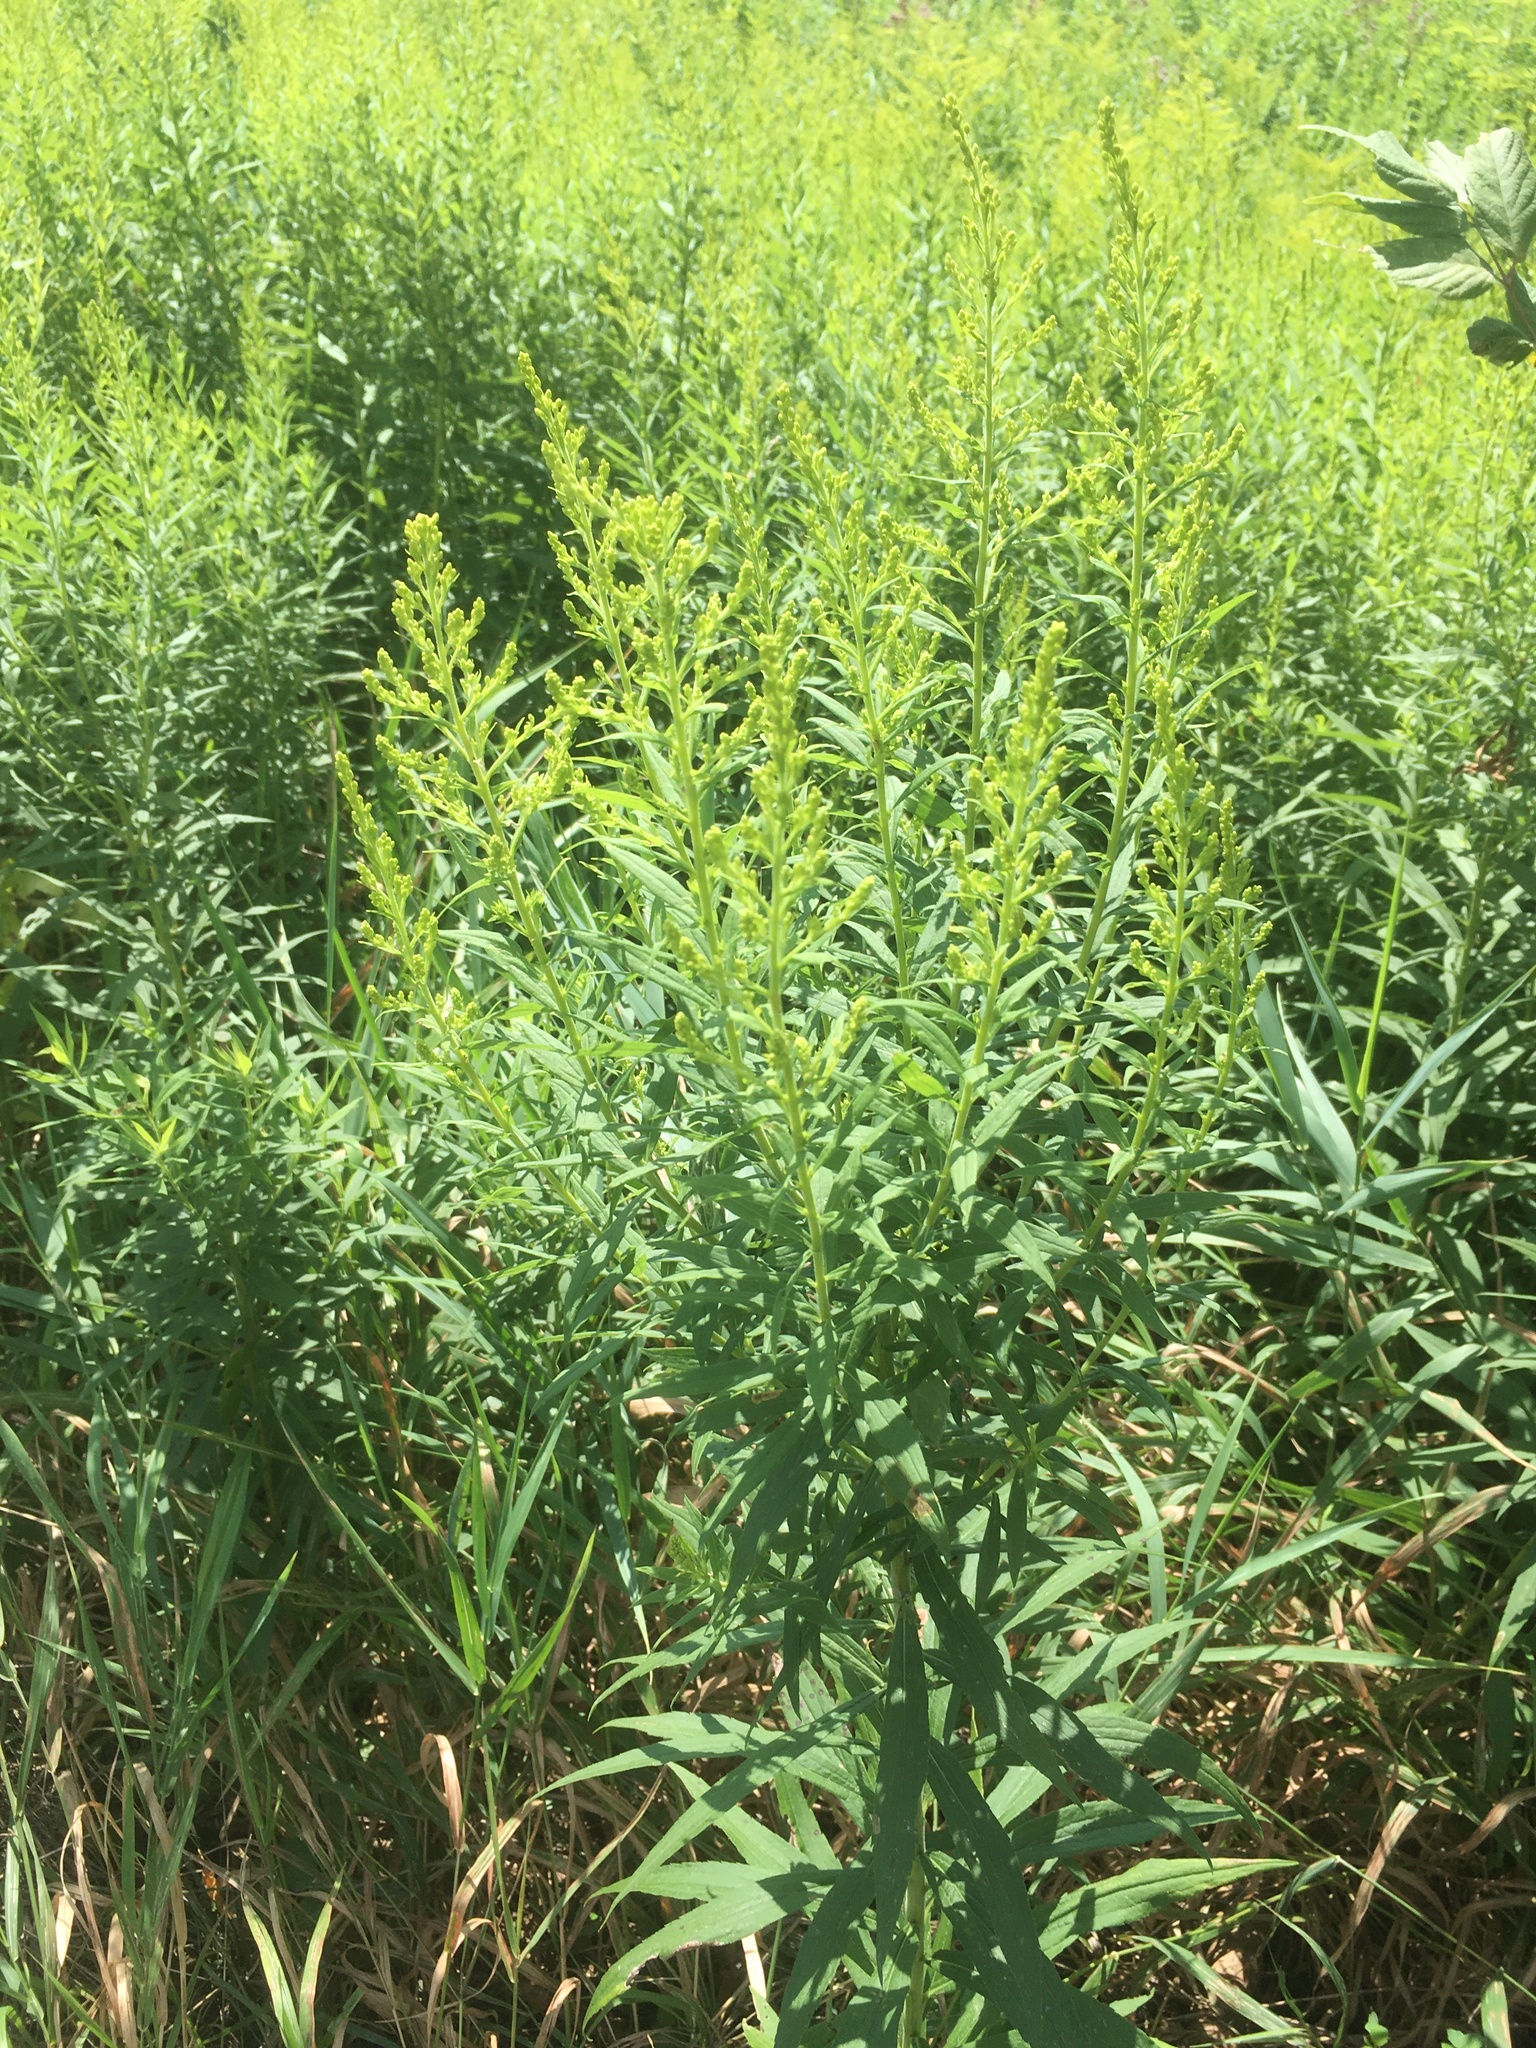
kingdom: Plantae
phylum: Tracheophyta
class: Magnoliopsida
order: Asterales
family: Asteraceae
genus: Solidago
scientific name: Solidago altissima
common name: Late goldenrod
